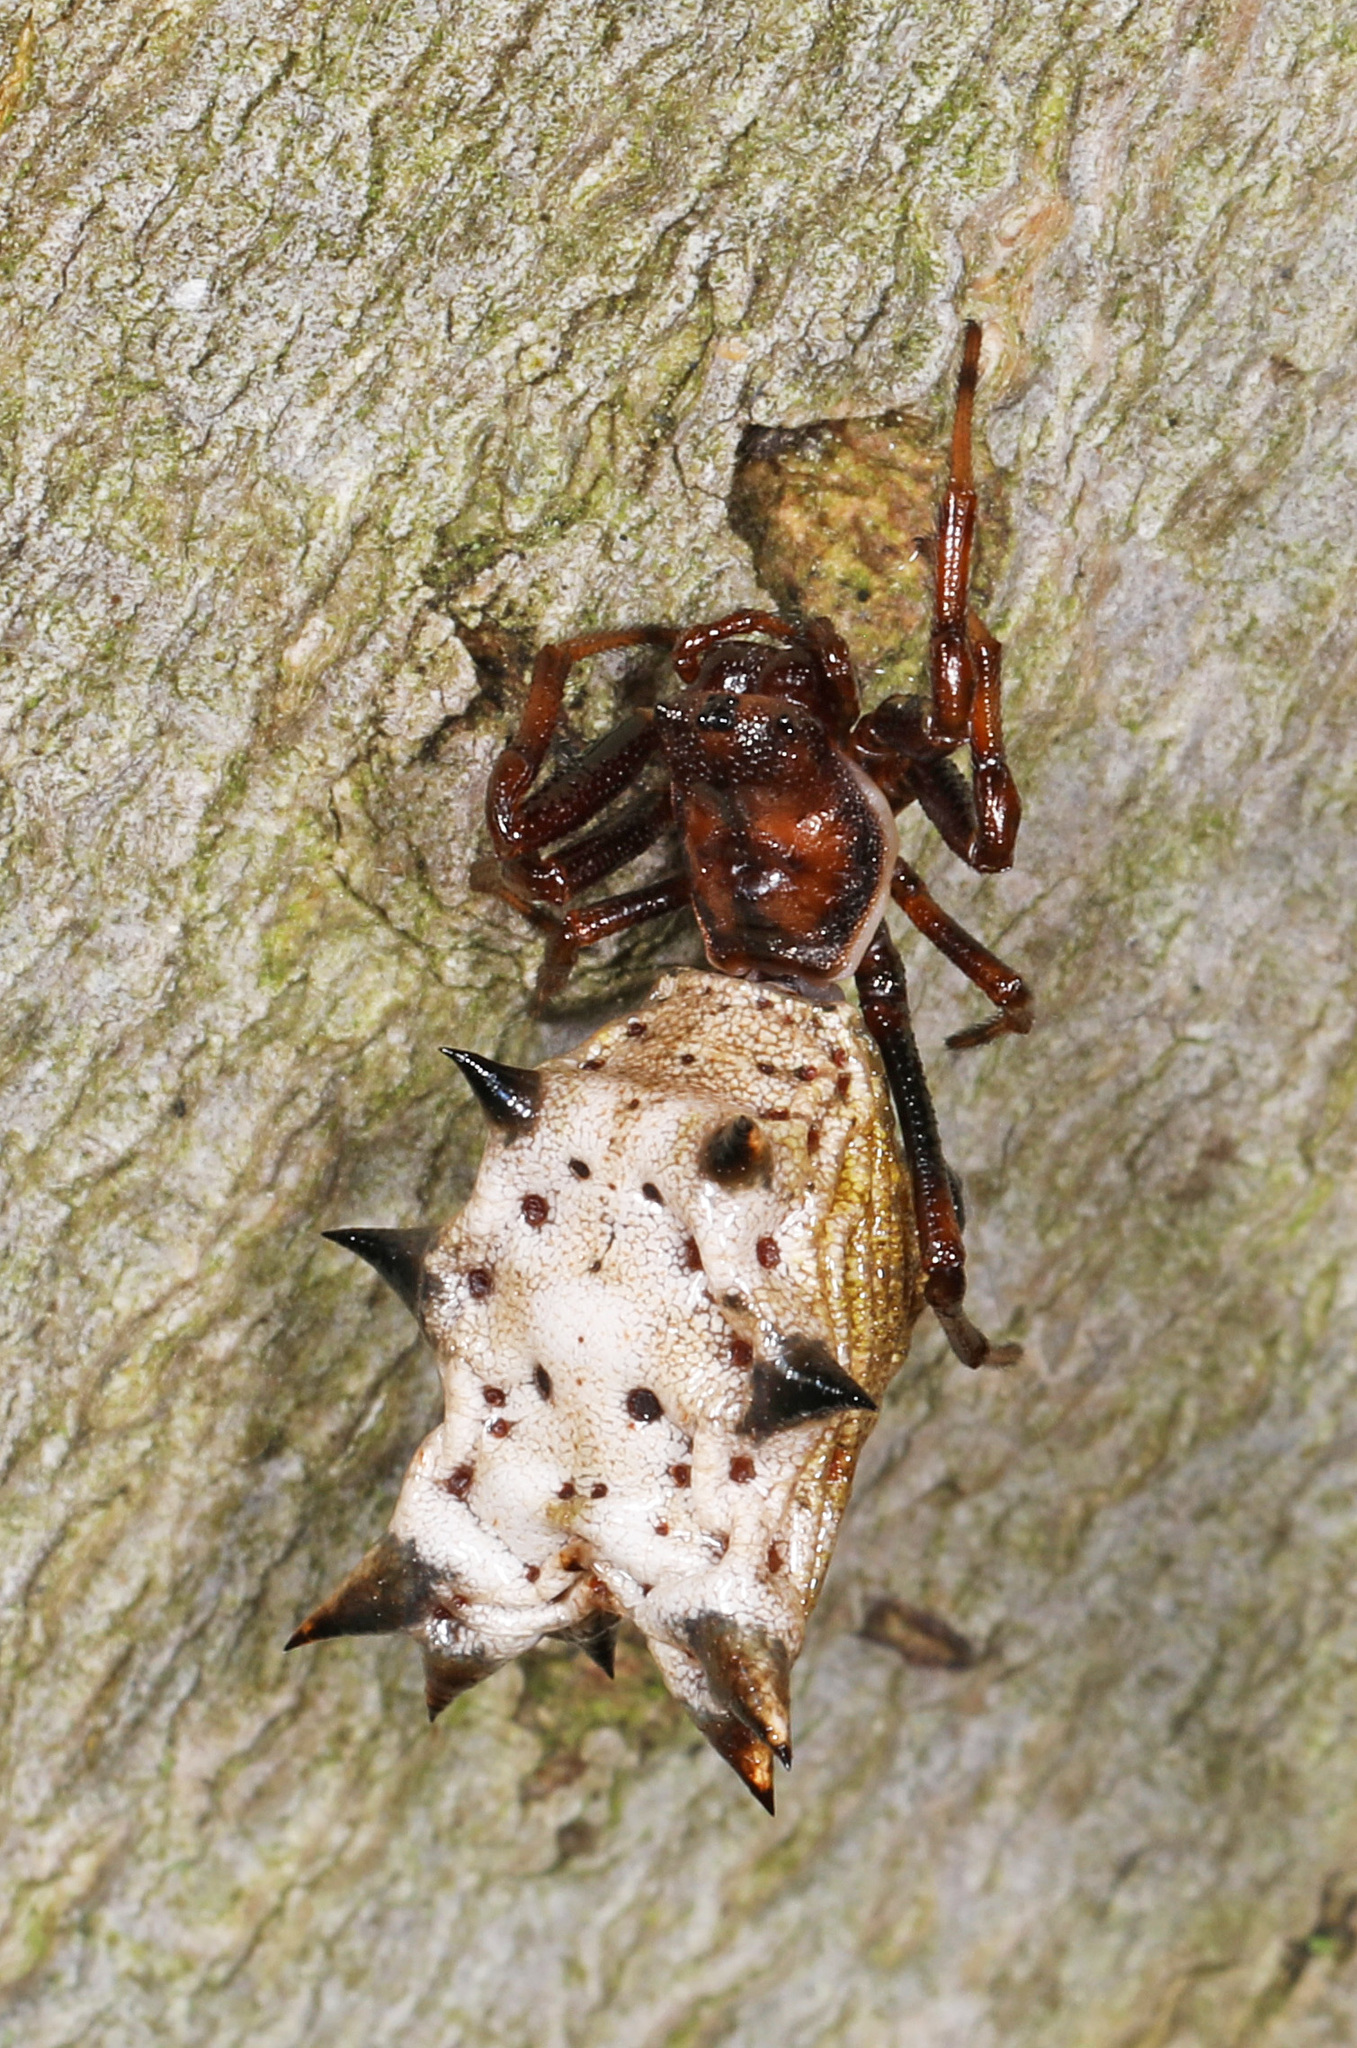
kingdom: Animalia
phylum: Arthropoda
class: Arachnida
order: Araneae
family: Araneidae
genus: Micrathena
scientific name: Micrathena gracilis
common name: Orb weavers
